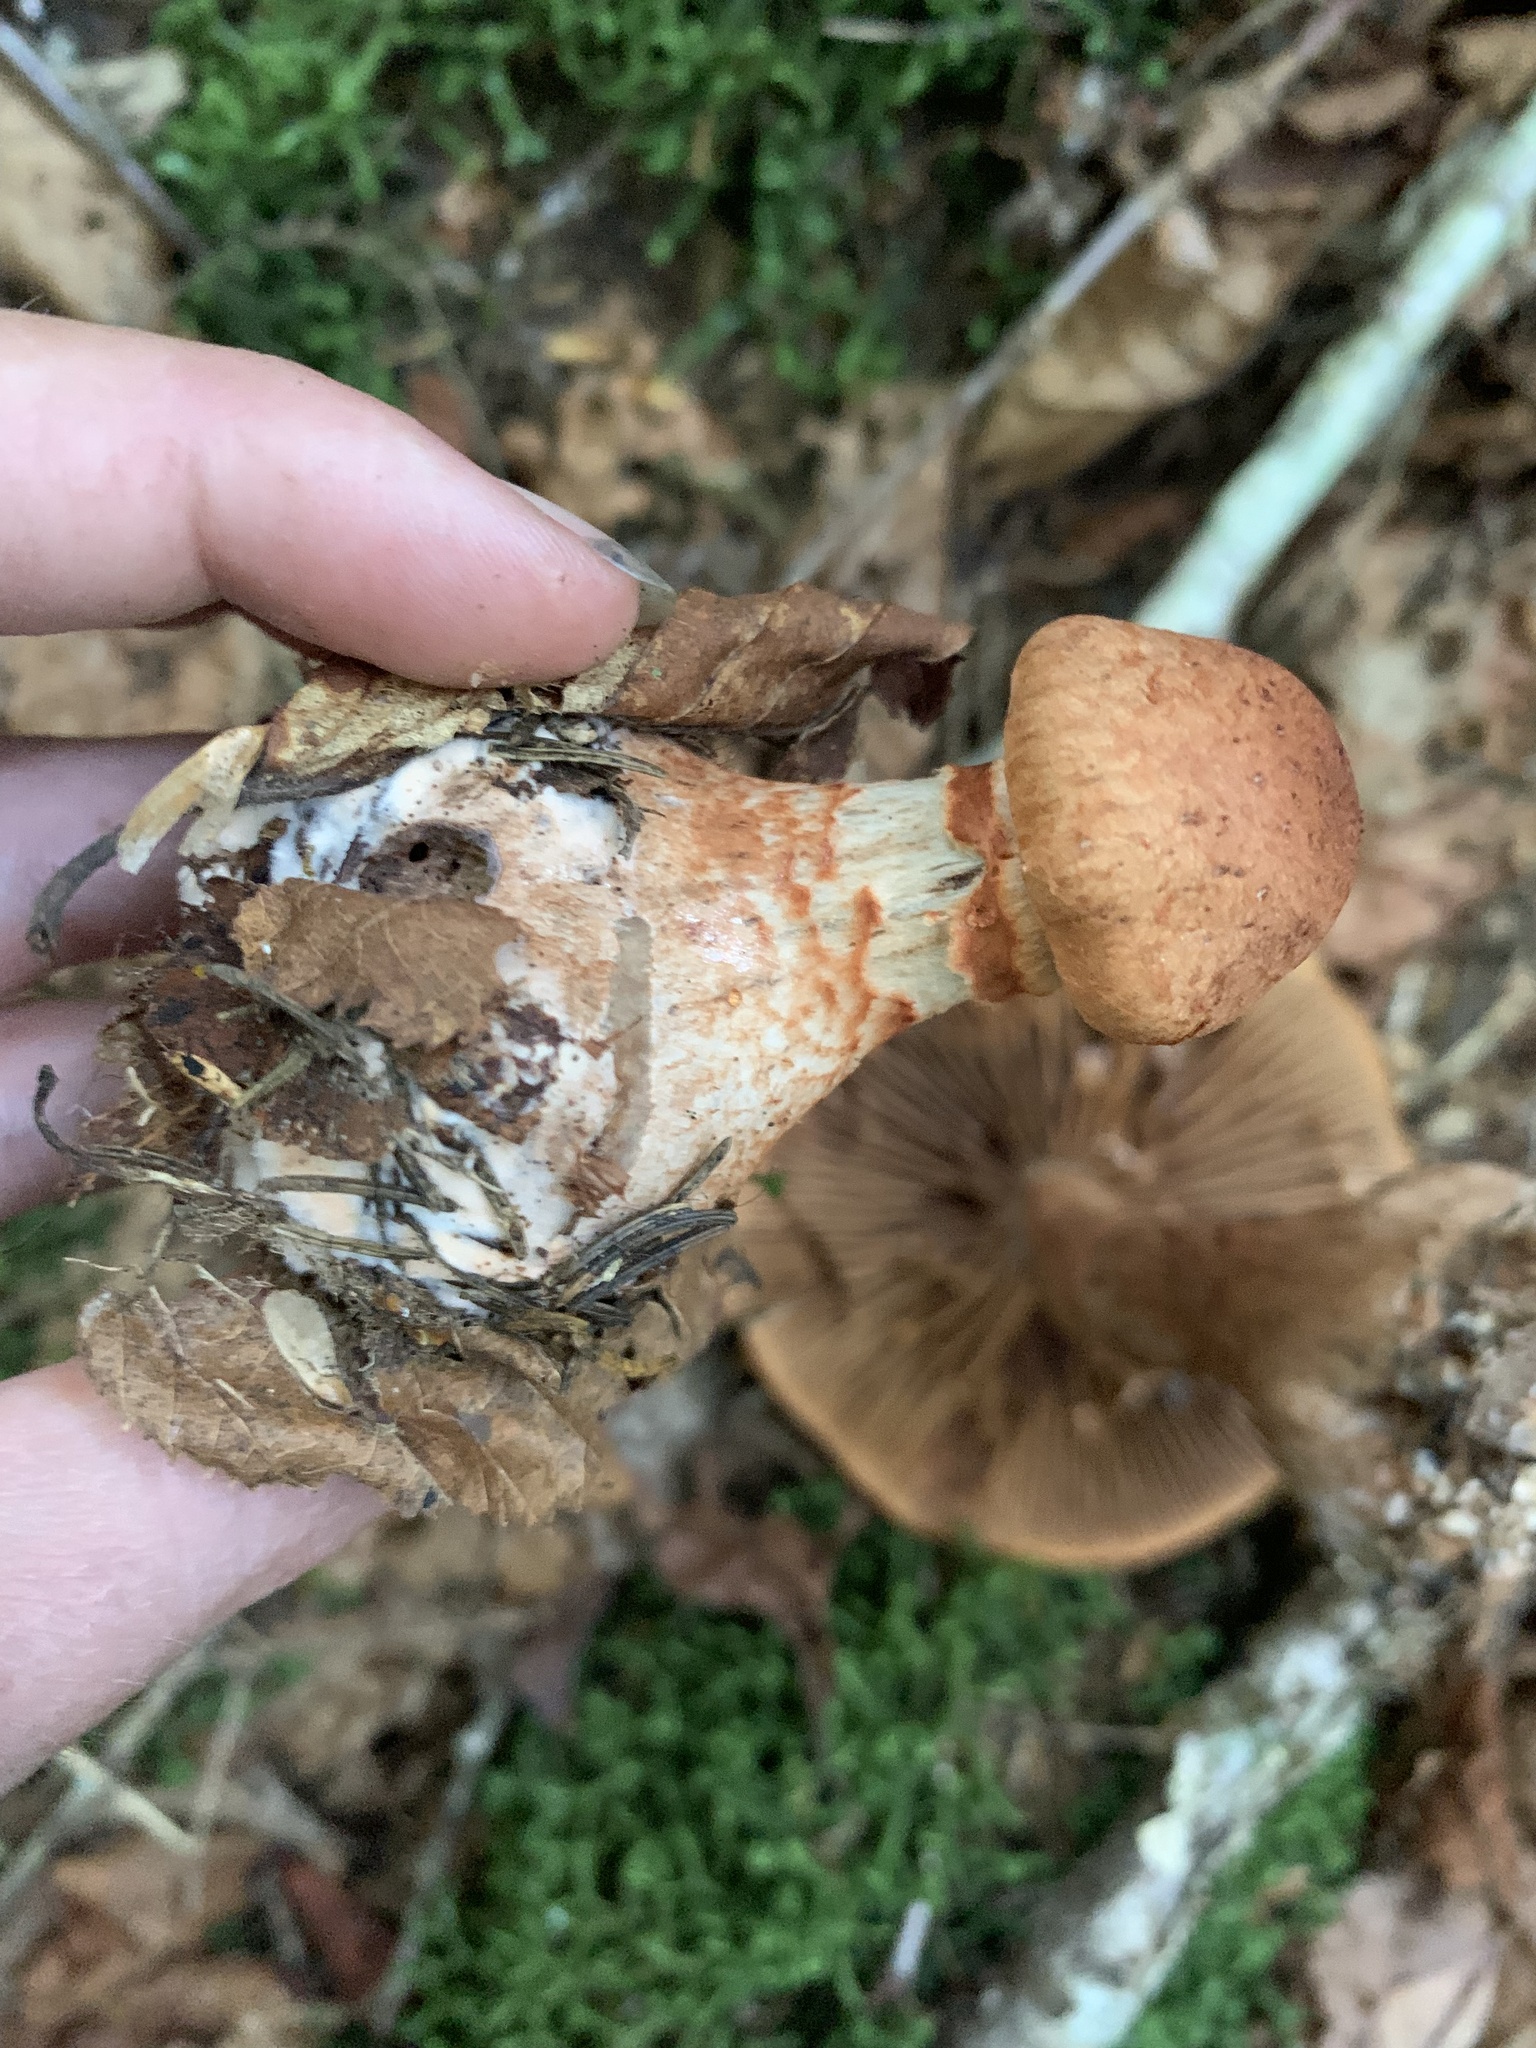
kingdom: Fungi
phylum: Basidiomycota
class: Agaricomycetes
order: Agaricales
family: Cortinariaceae
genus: Cortinarius
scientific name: Cortinarius armillatus
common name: Red banded webcap
